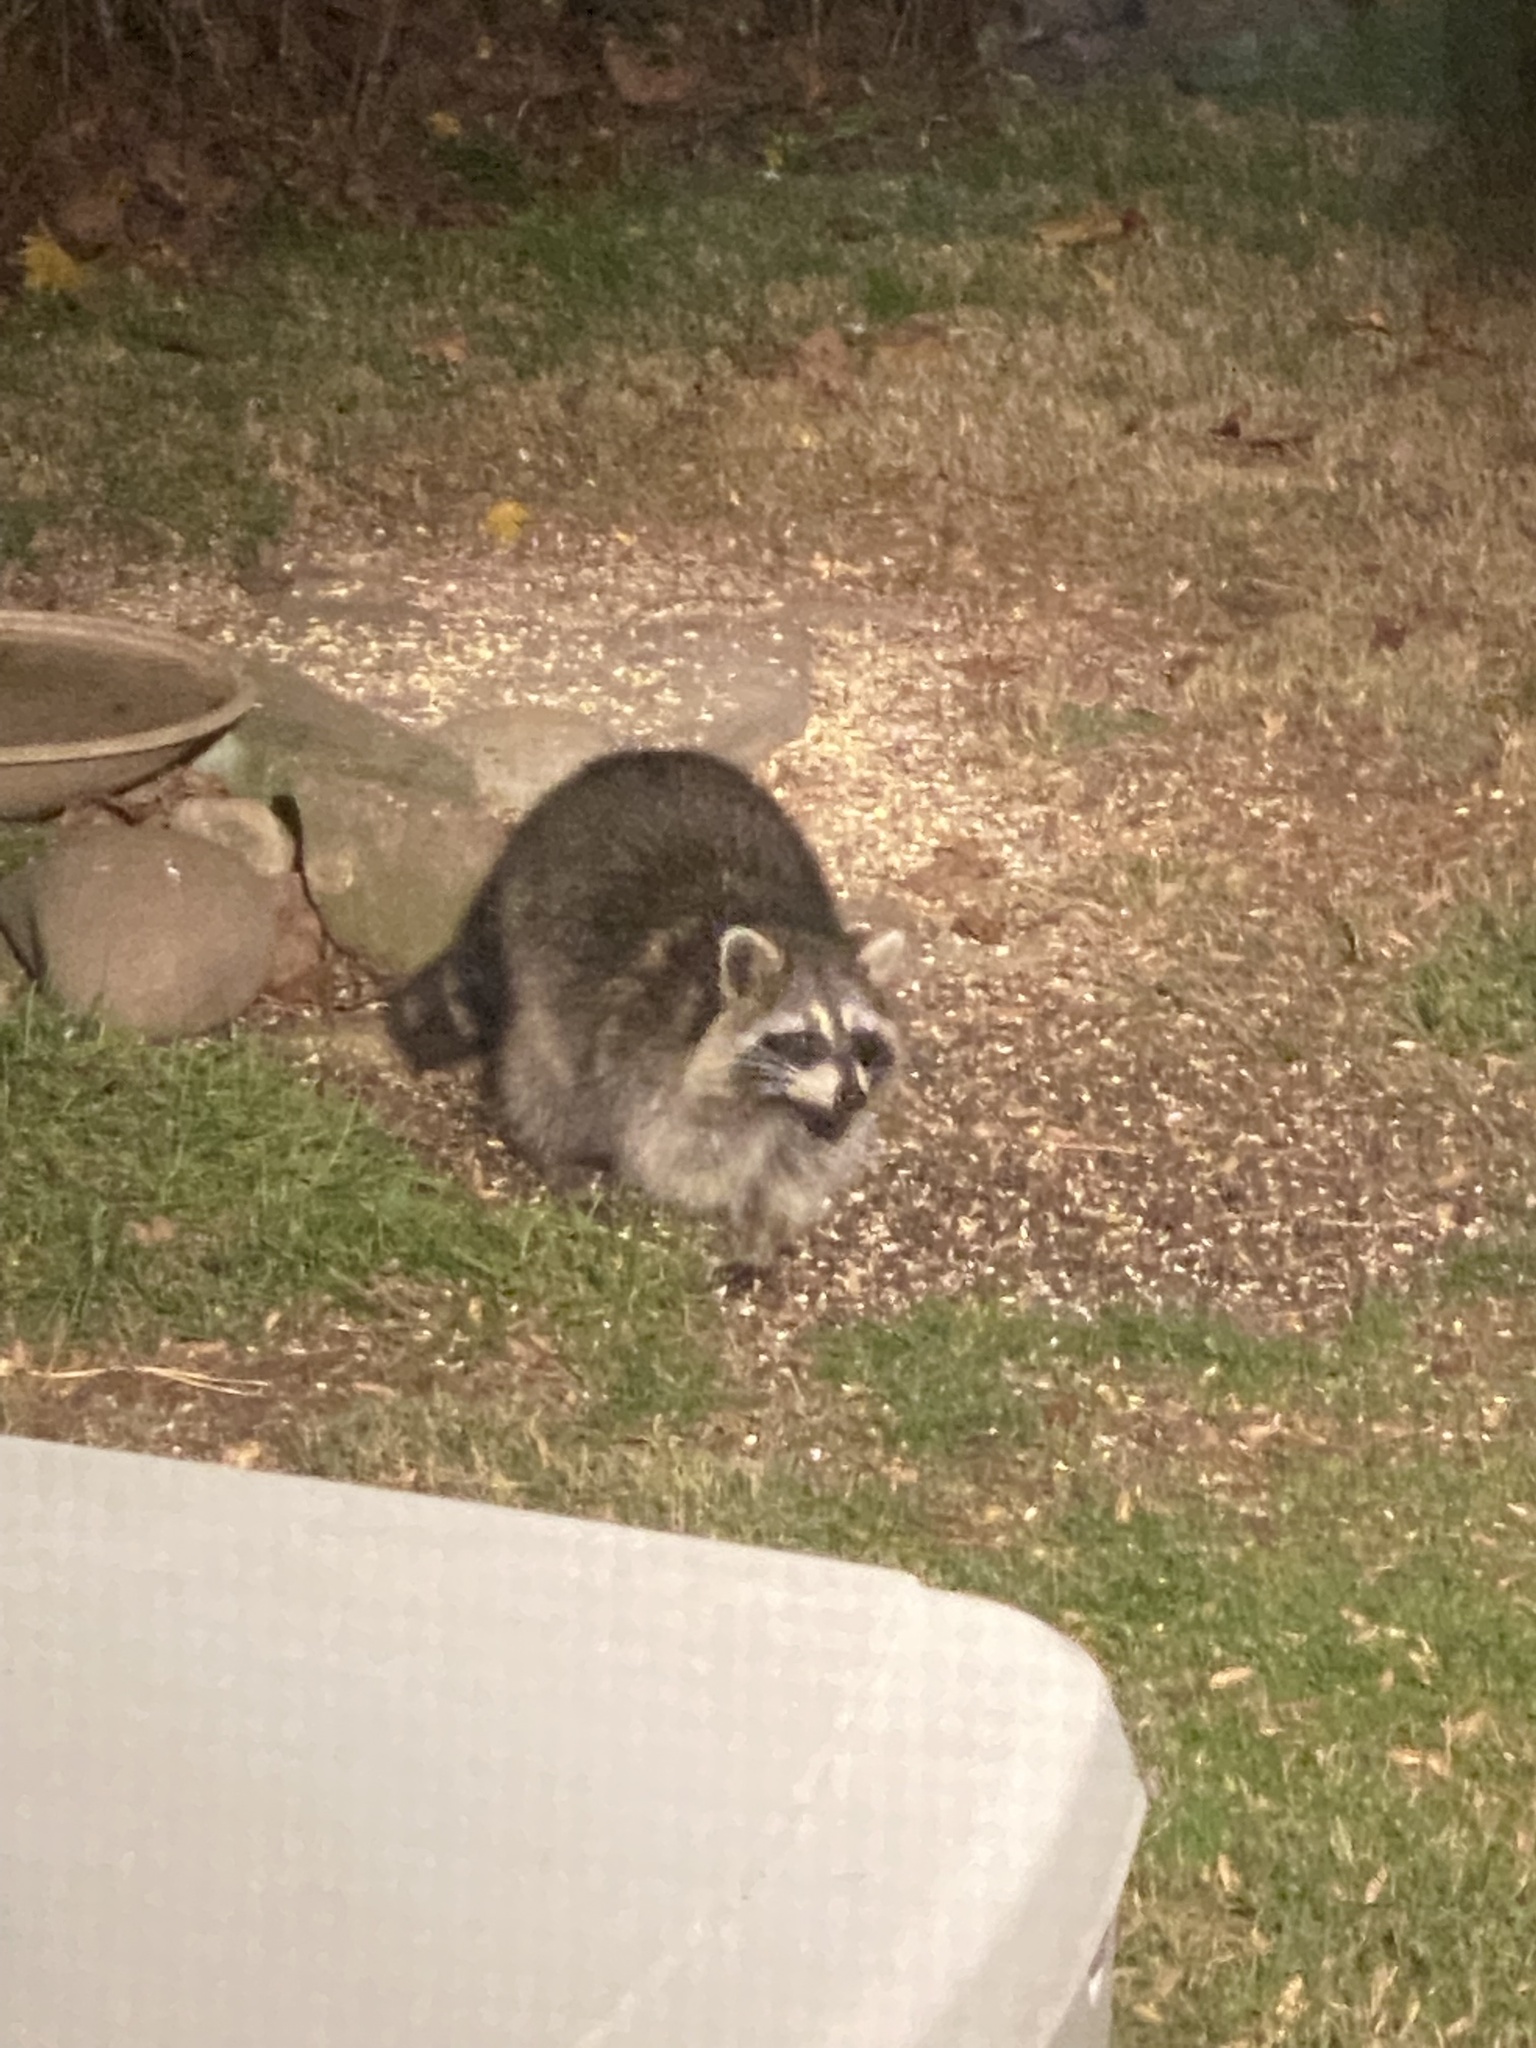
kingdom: Animalia
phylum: Chordata
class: Mammalia
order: Carnivora
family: Procyonidae
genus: Procyon
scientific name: Procyon lotor
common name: Raccoon
